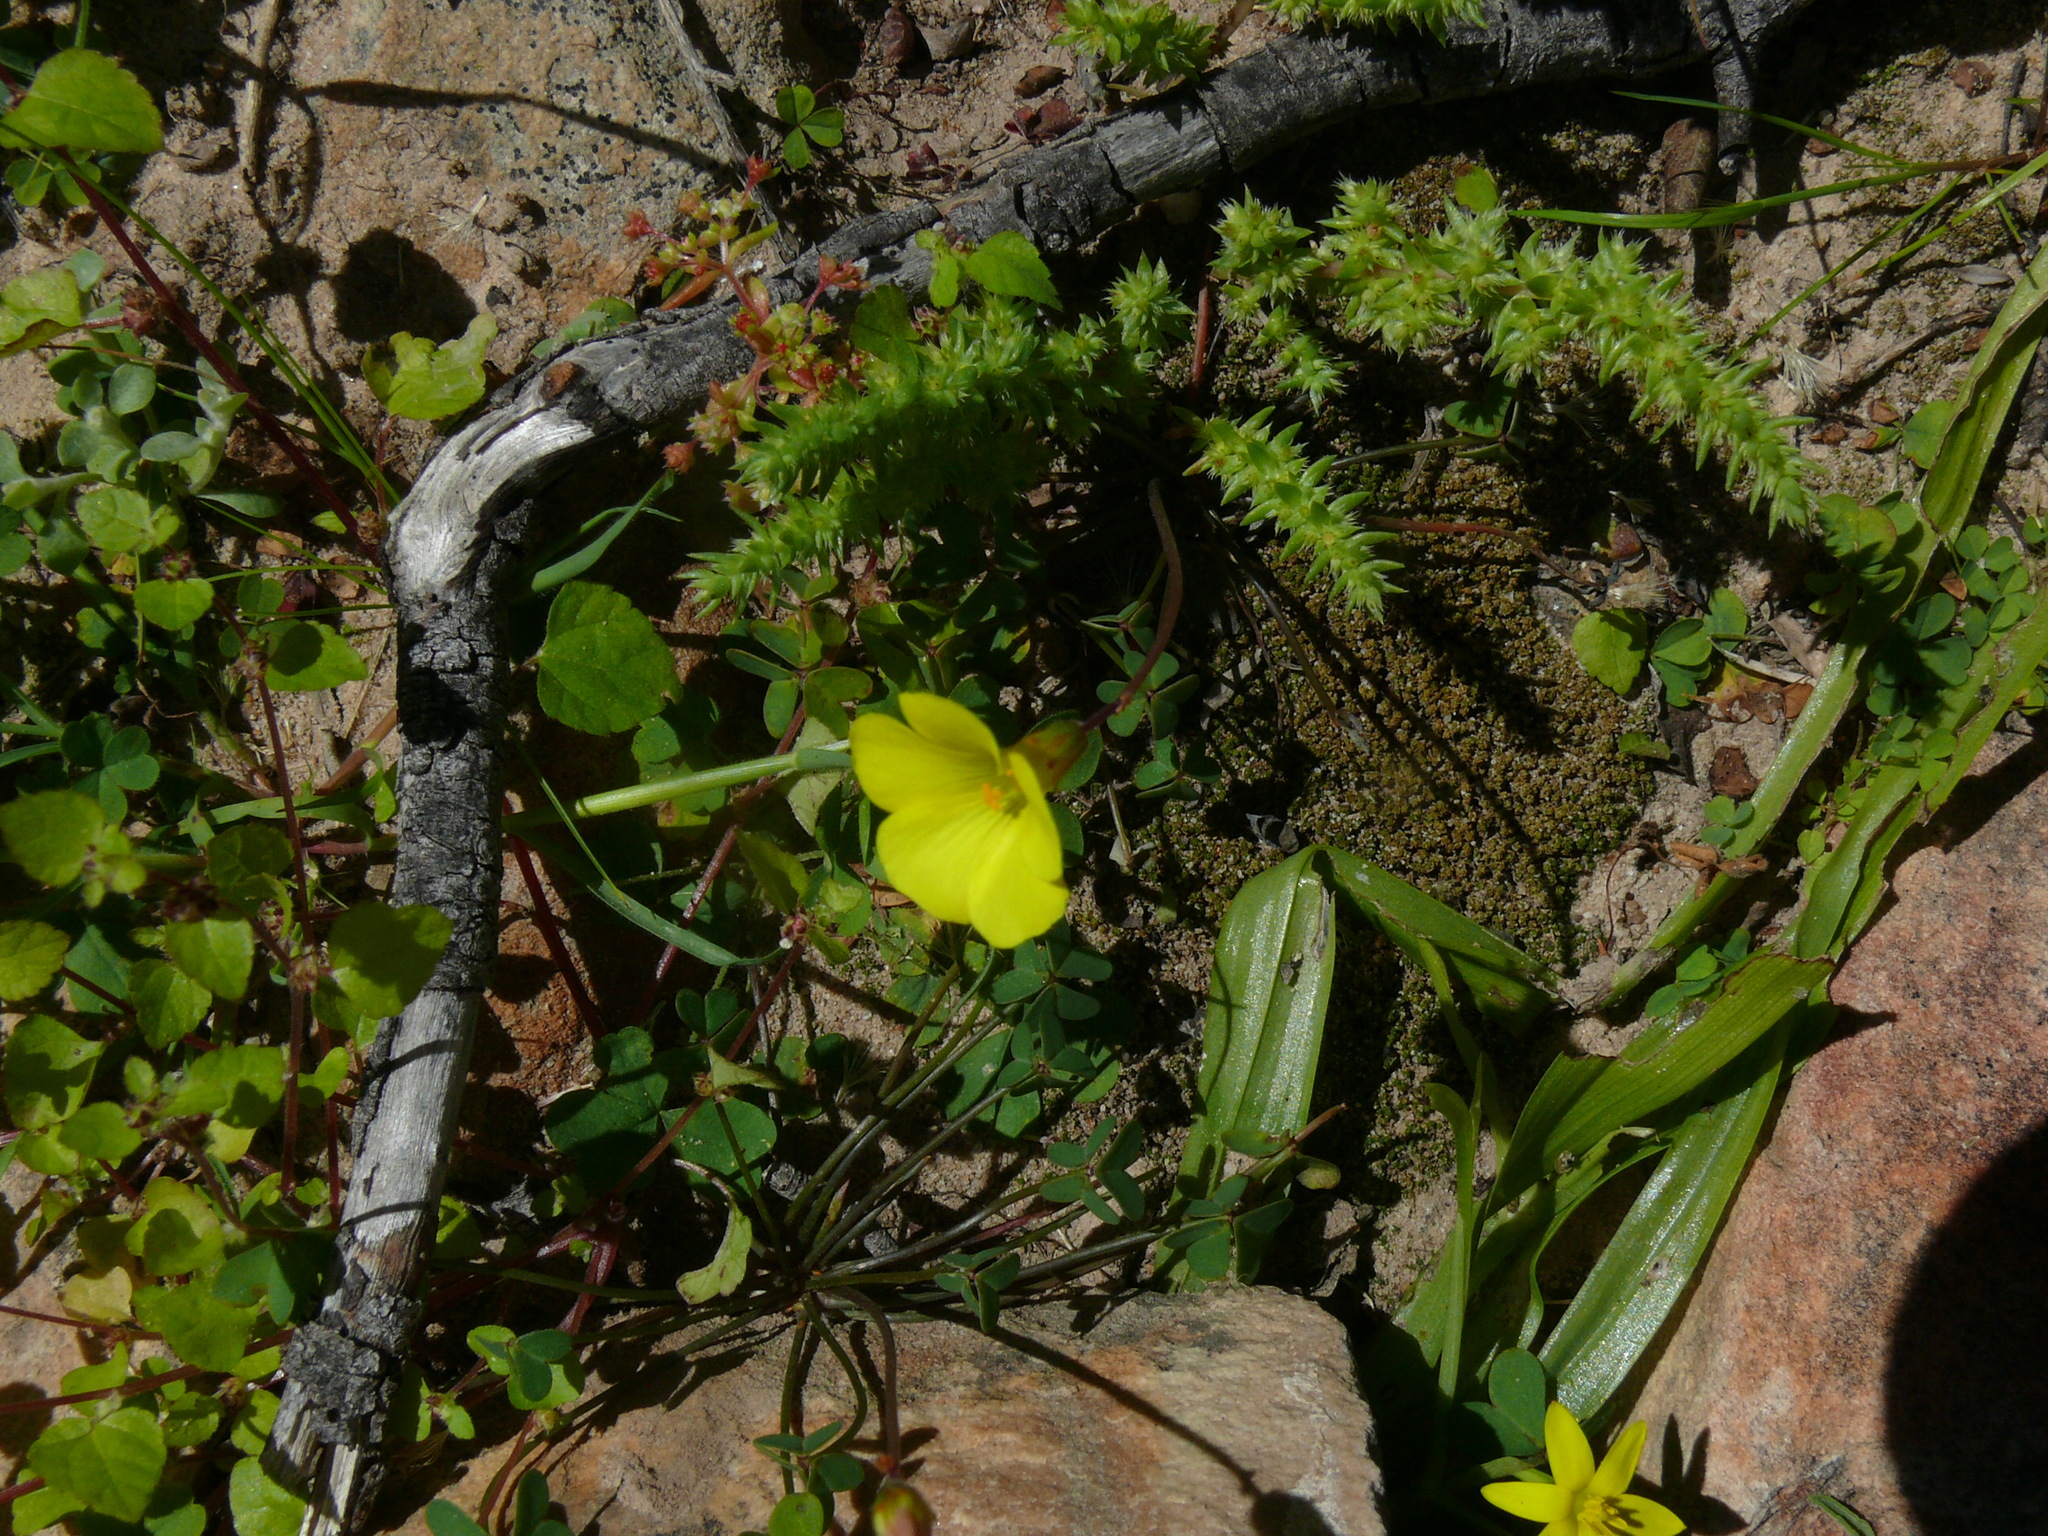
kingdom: Plantae
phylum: Tracheophyta
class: Magnoliopsida
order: Oxalidales
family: Oxalidaceae
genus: Oxalis
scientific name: Oxalis pes-caprae
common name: Bermuda-buttercup
